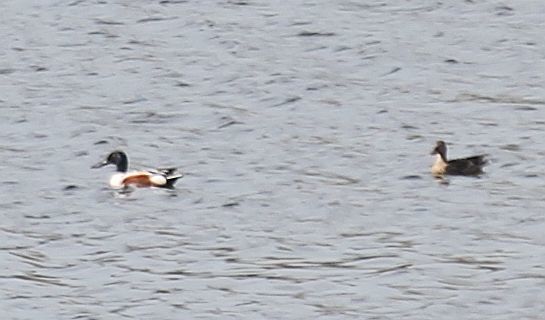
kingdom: Animalia
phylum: Chordata
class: Aves
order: Anseriformes
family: Anatidae
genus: Spatula
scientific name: Spatula clypeata
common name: Northern shoveler
